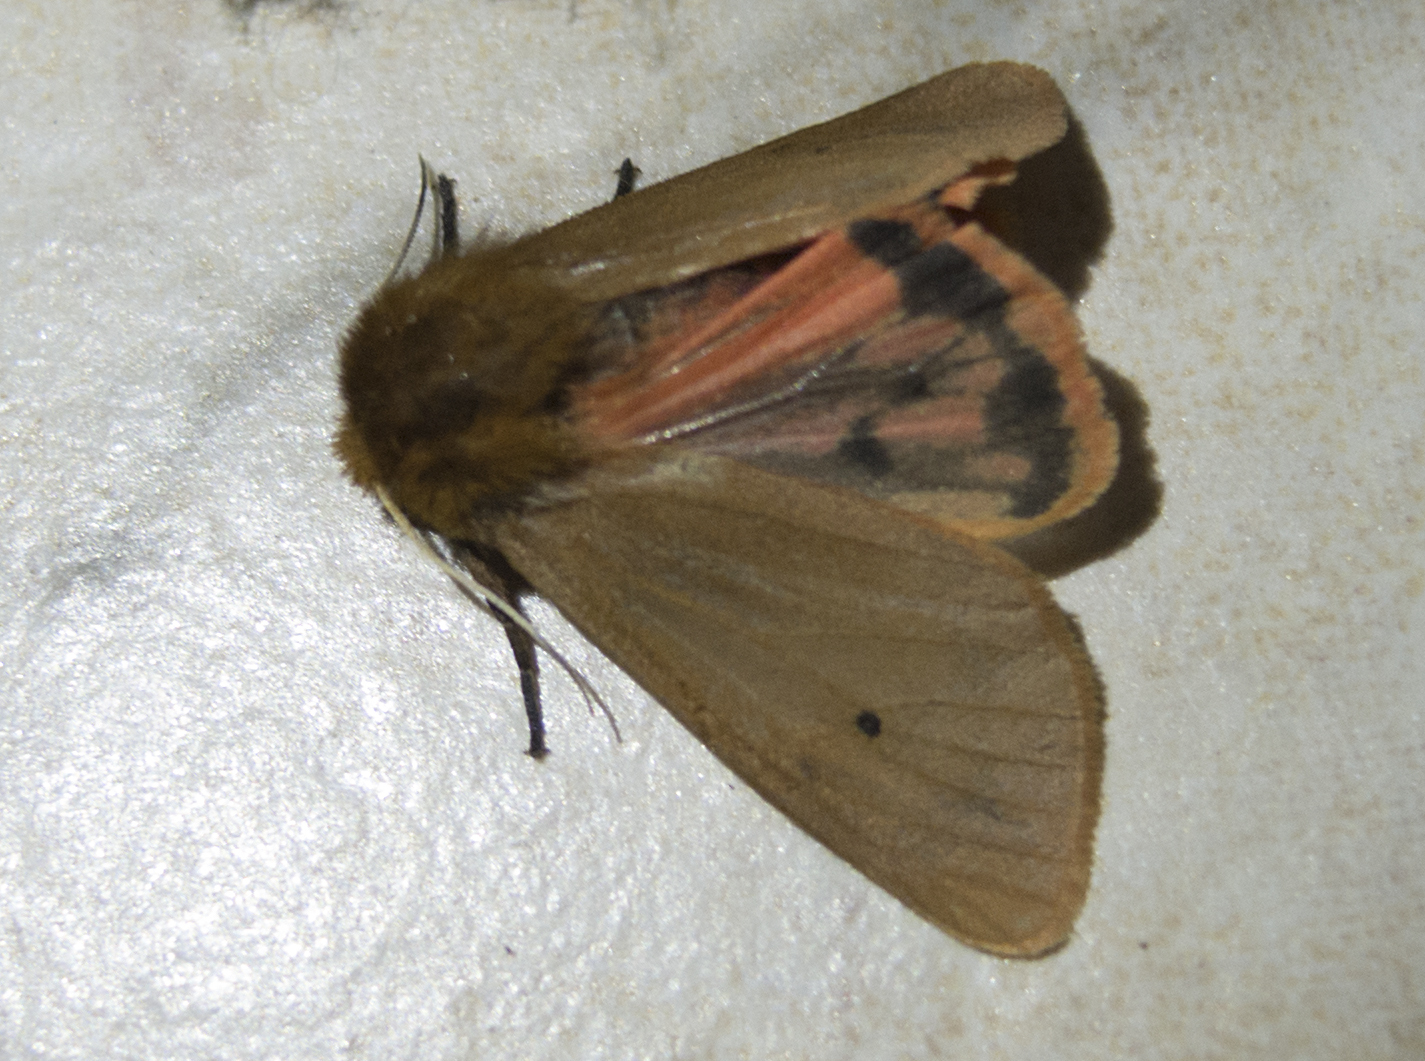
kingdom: Animalia
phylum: Arthropoda
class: Insecta
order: Lepidoptera
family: Erebidae
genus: Phragmatobia
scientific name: Phragmatobia fuliginosa
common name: Ruby tiger
